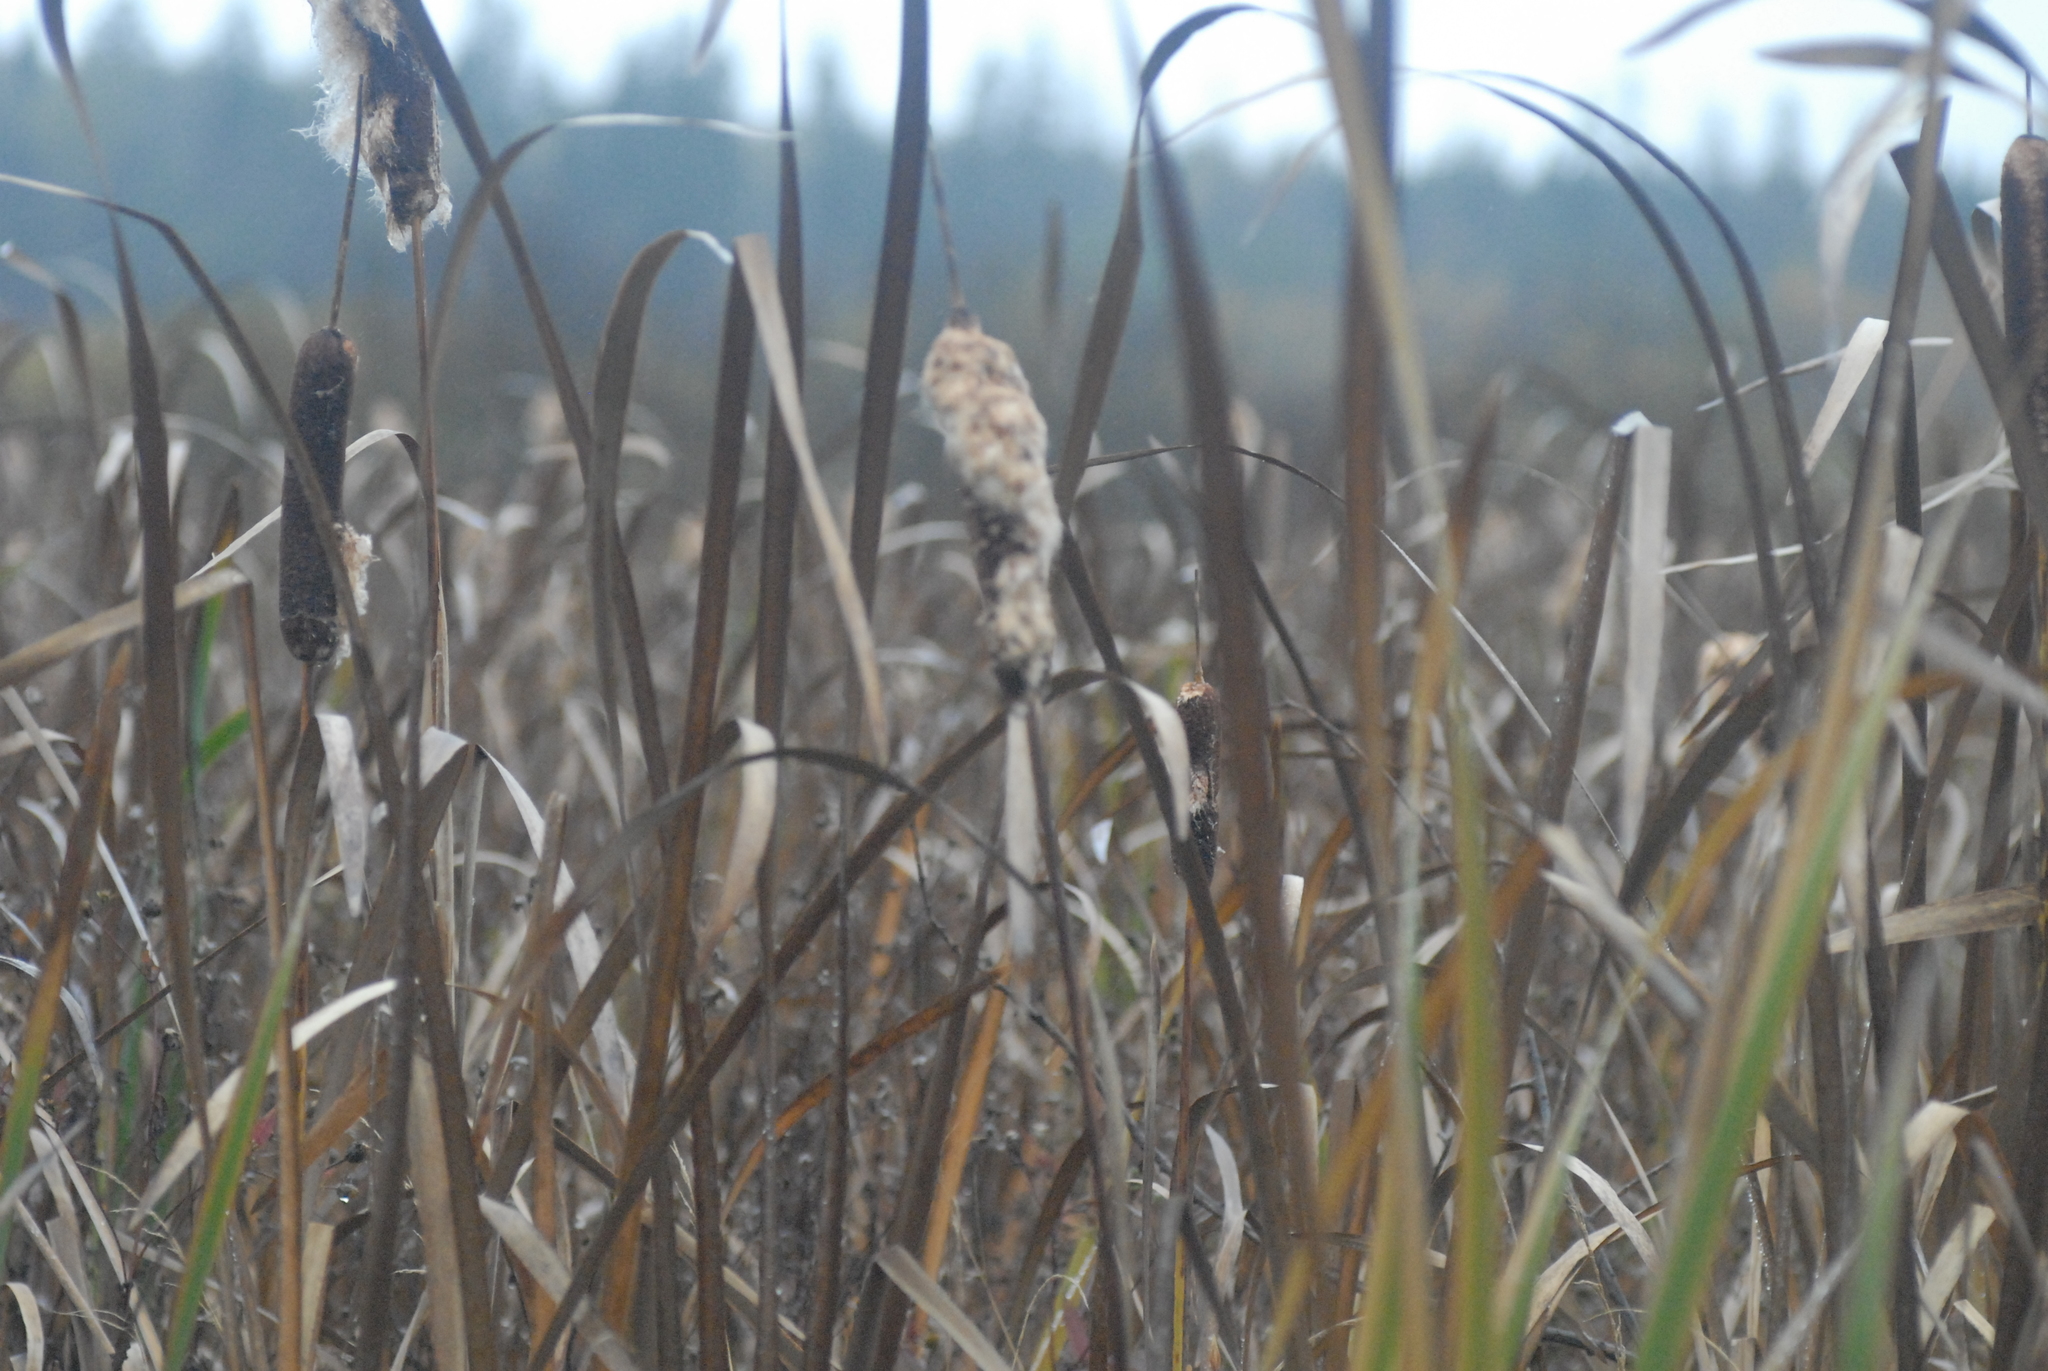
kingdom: Plantae
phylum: Tracheophyta
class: Liliopsida
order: Poales
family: Typhaceae
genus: Typha
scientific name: Typha latifolia
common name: Broadleaf cattail
